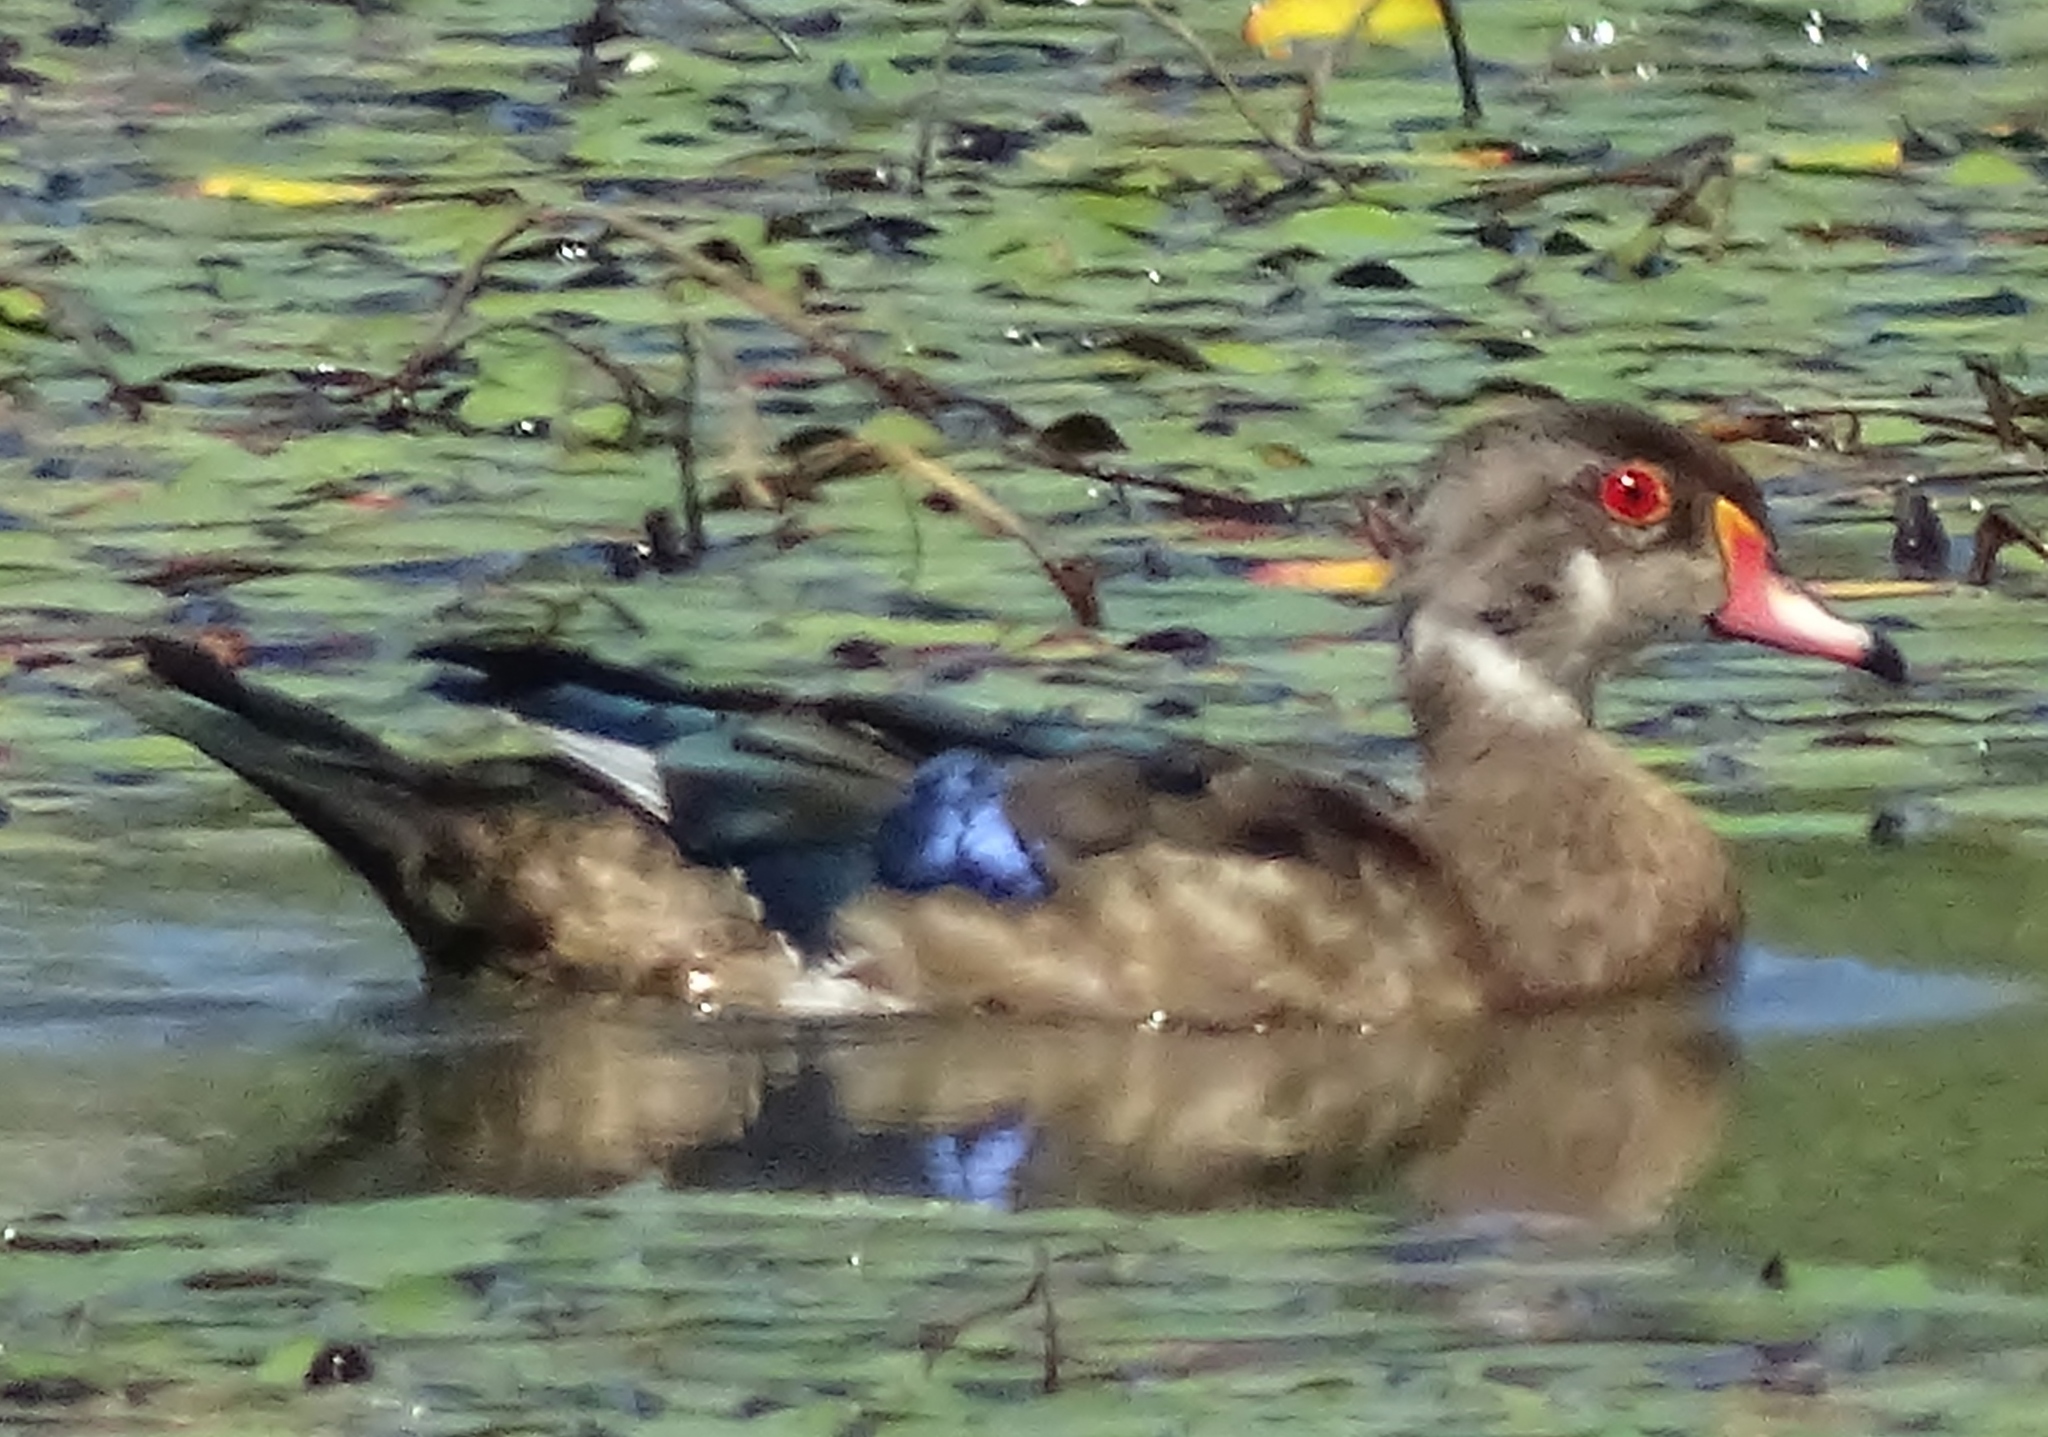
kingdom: Animalia
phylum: Chordata
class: Aves
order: Anseriformes
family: Anatidae
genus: Aix
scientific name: Aix sponsa
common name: Wood duck
